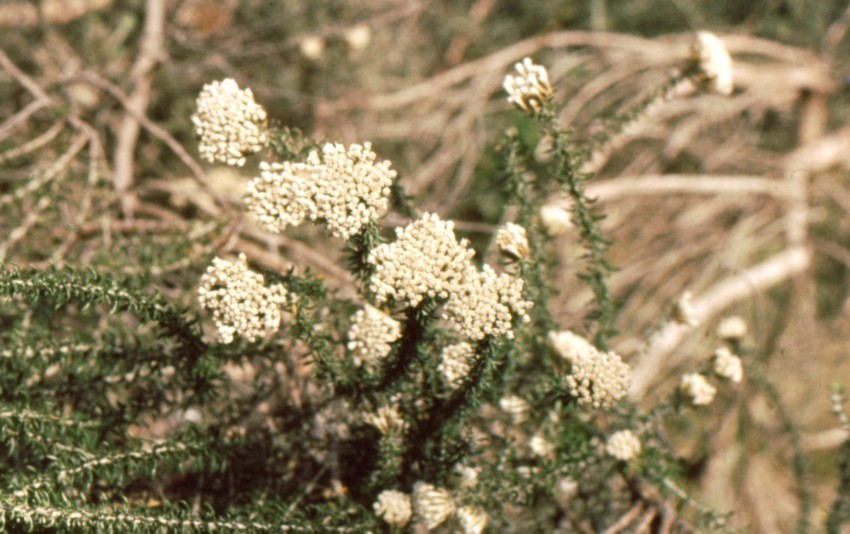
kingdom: Plantae
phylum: Tracheophyta
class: Magnoliopsida
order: Asterales
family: Asteraceae
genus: Metalasia
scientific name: Metalasia muricata
